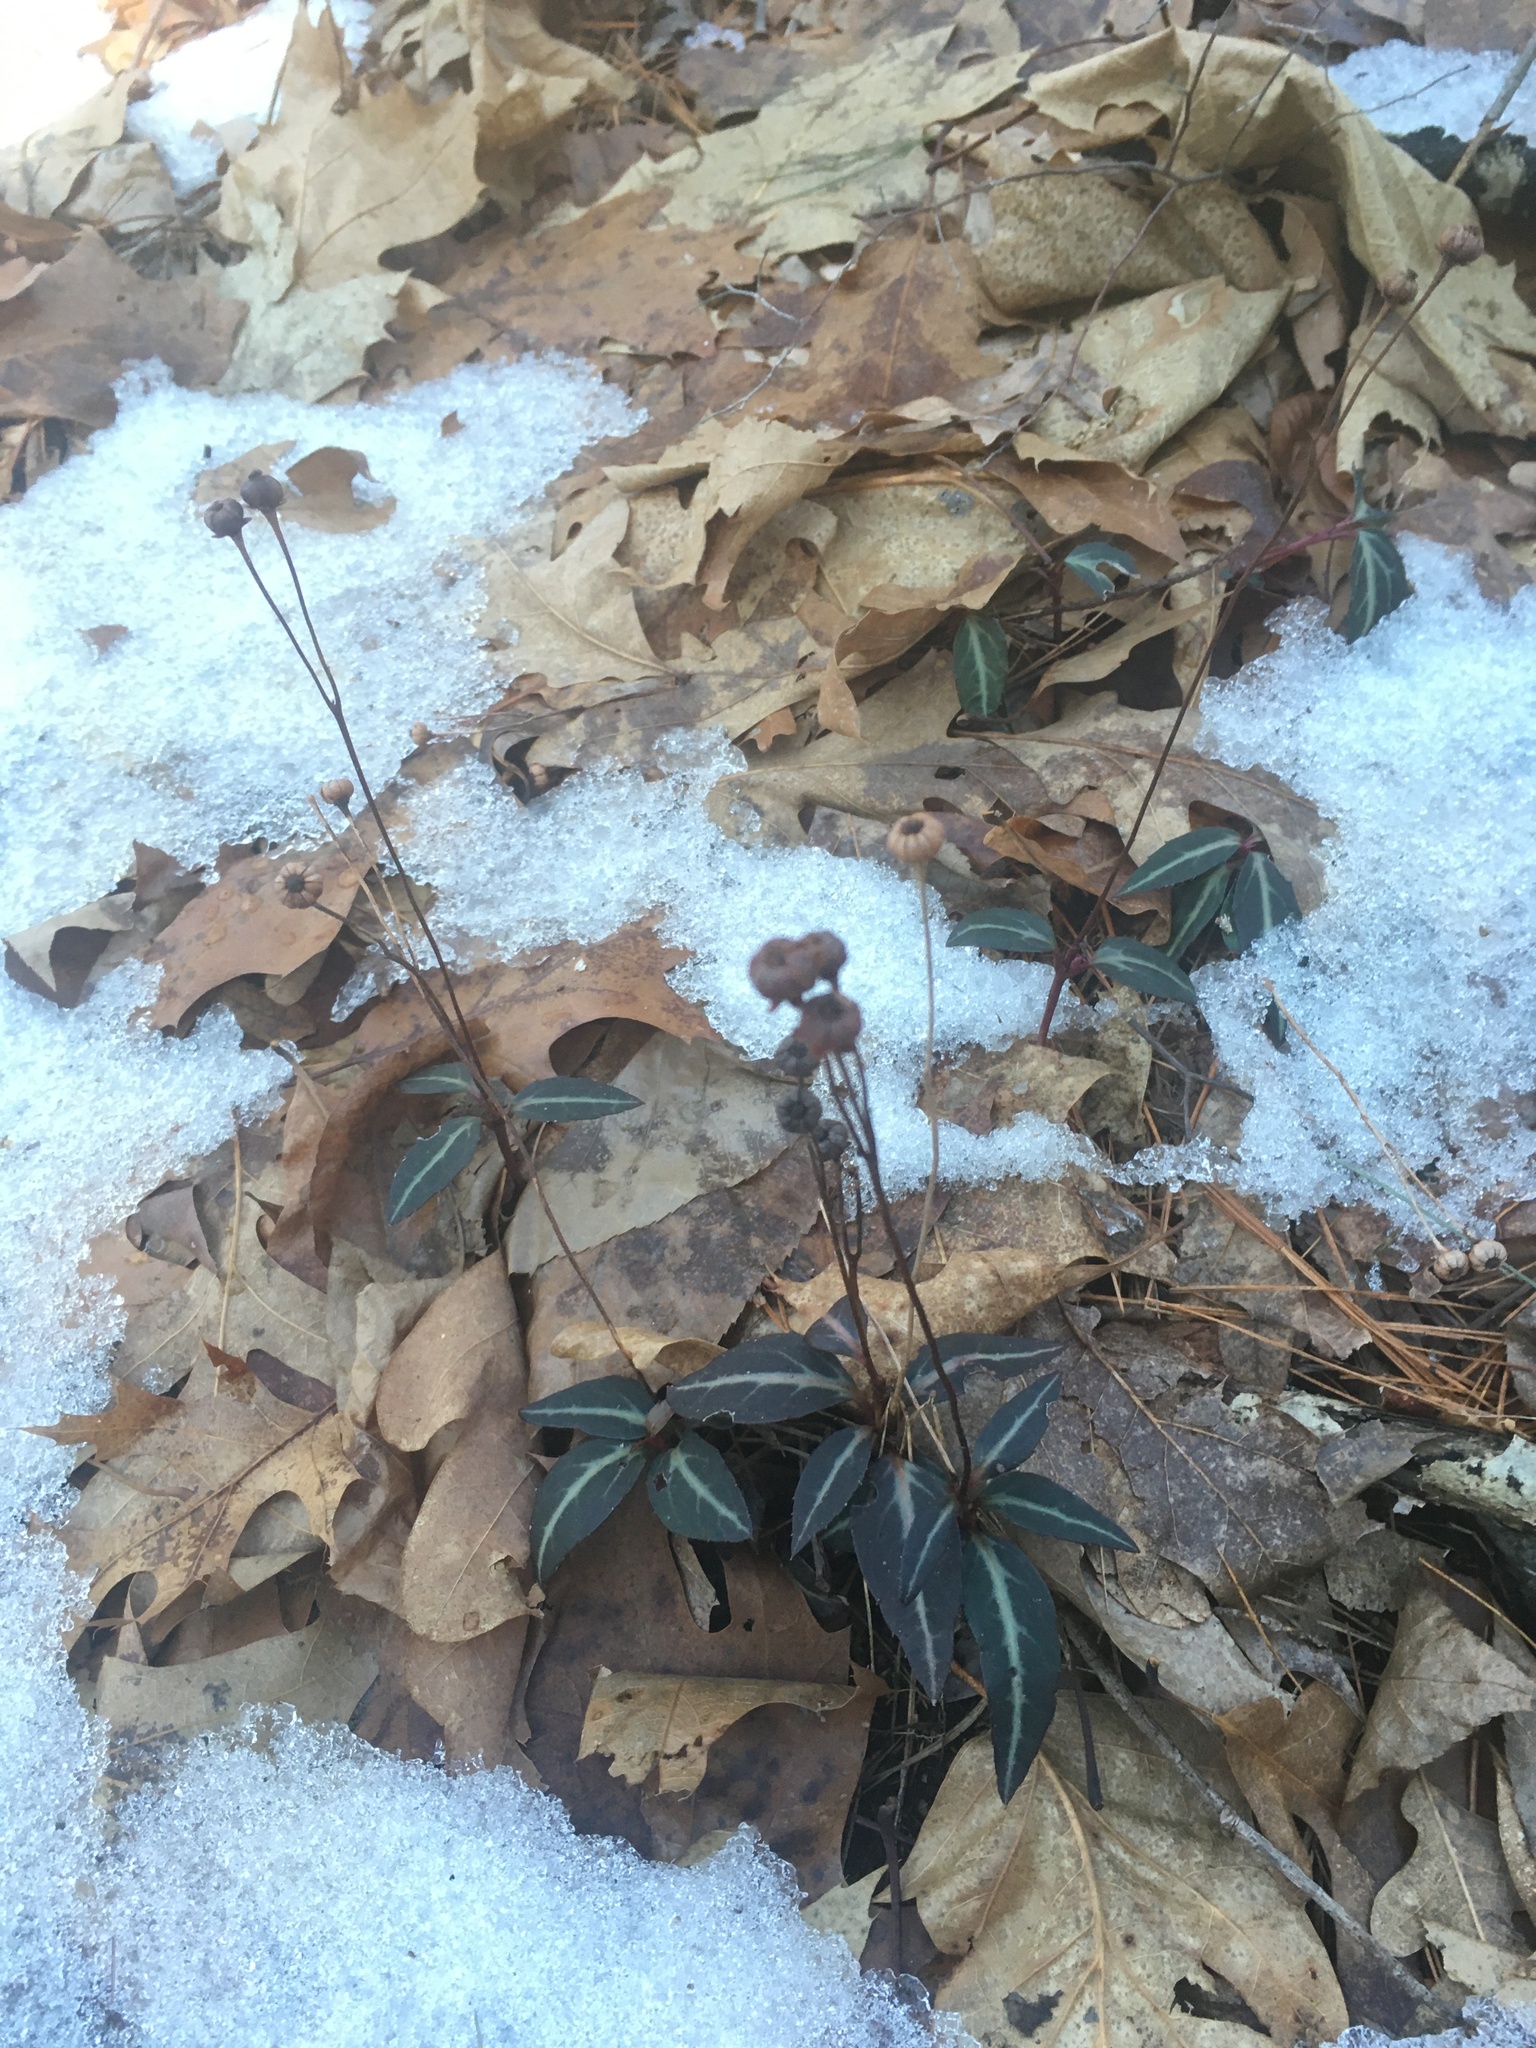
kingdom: Plantae
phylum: Tracheophyta
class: Magnoliopsida
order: Ericales
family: Ericaceae
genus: Chimaphila
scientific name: Chimaphila maculata
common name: Spotted pipsissewa
